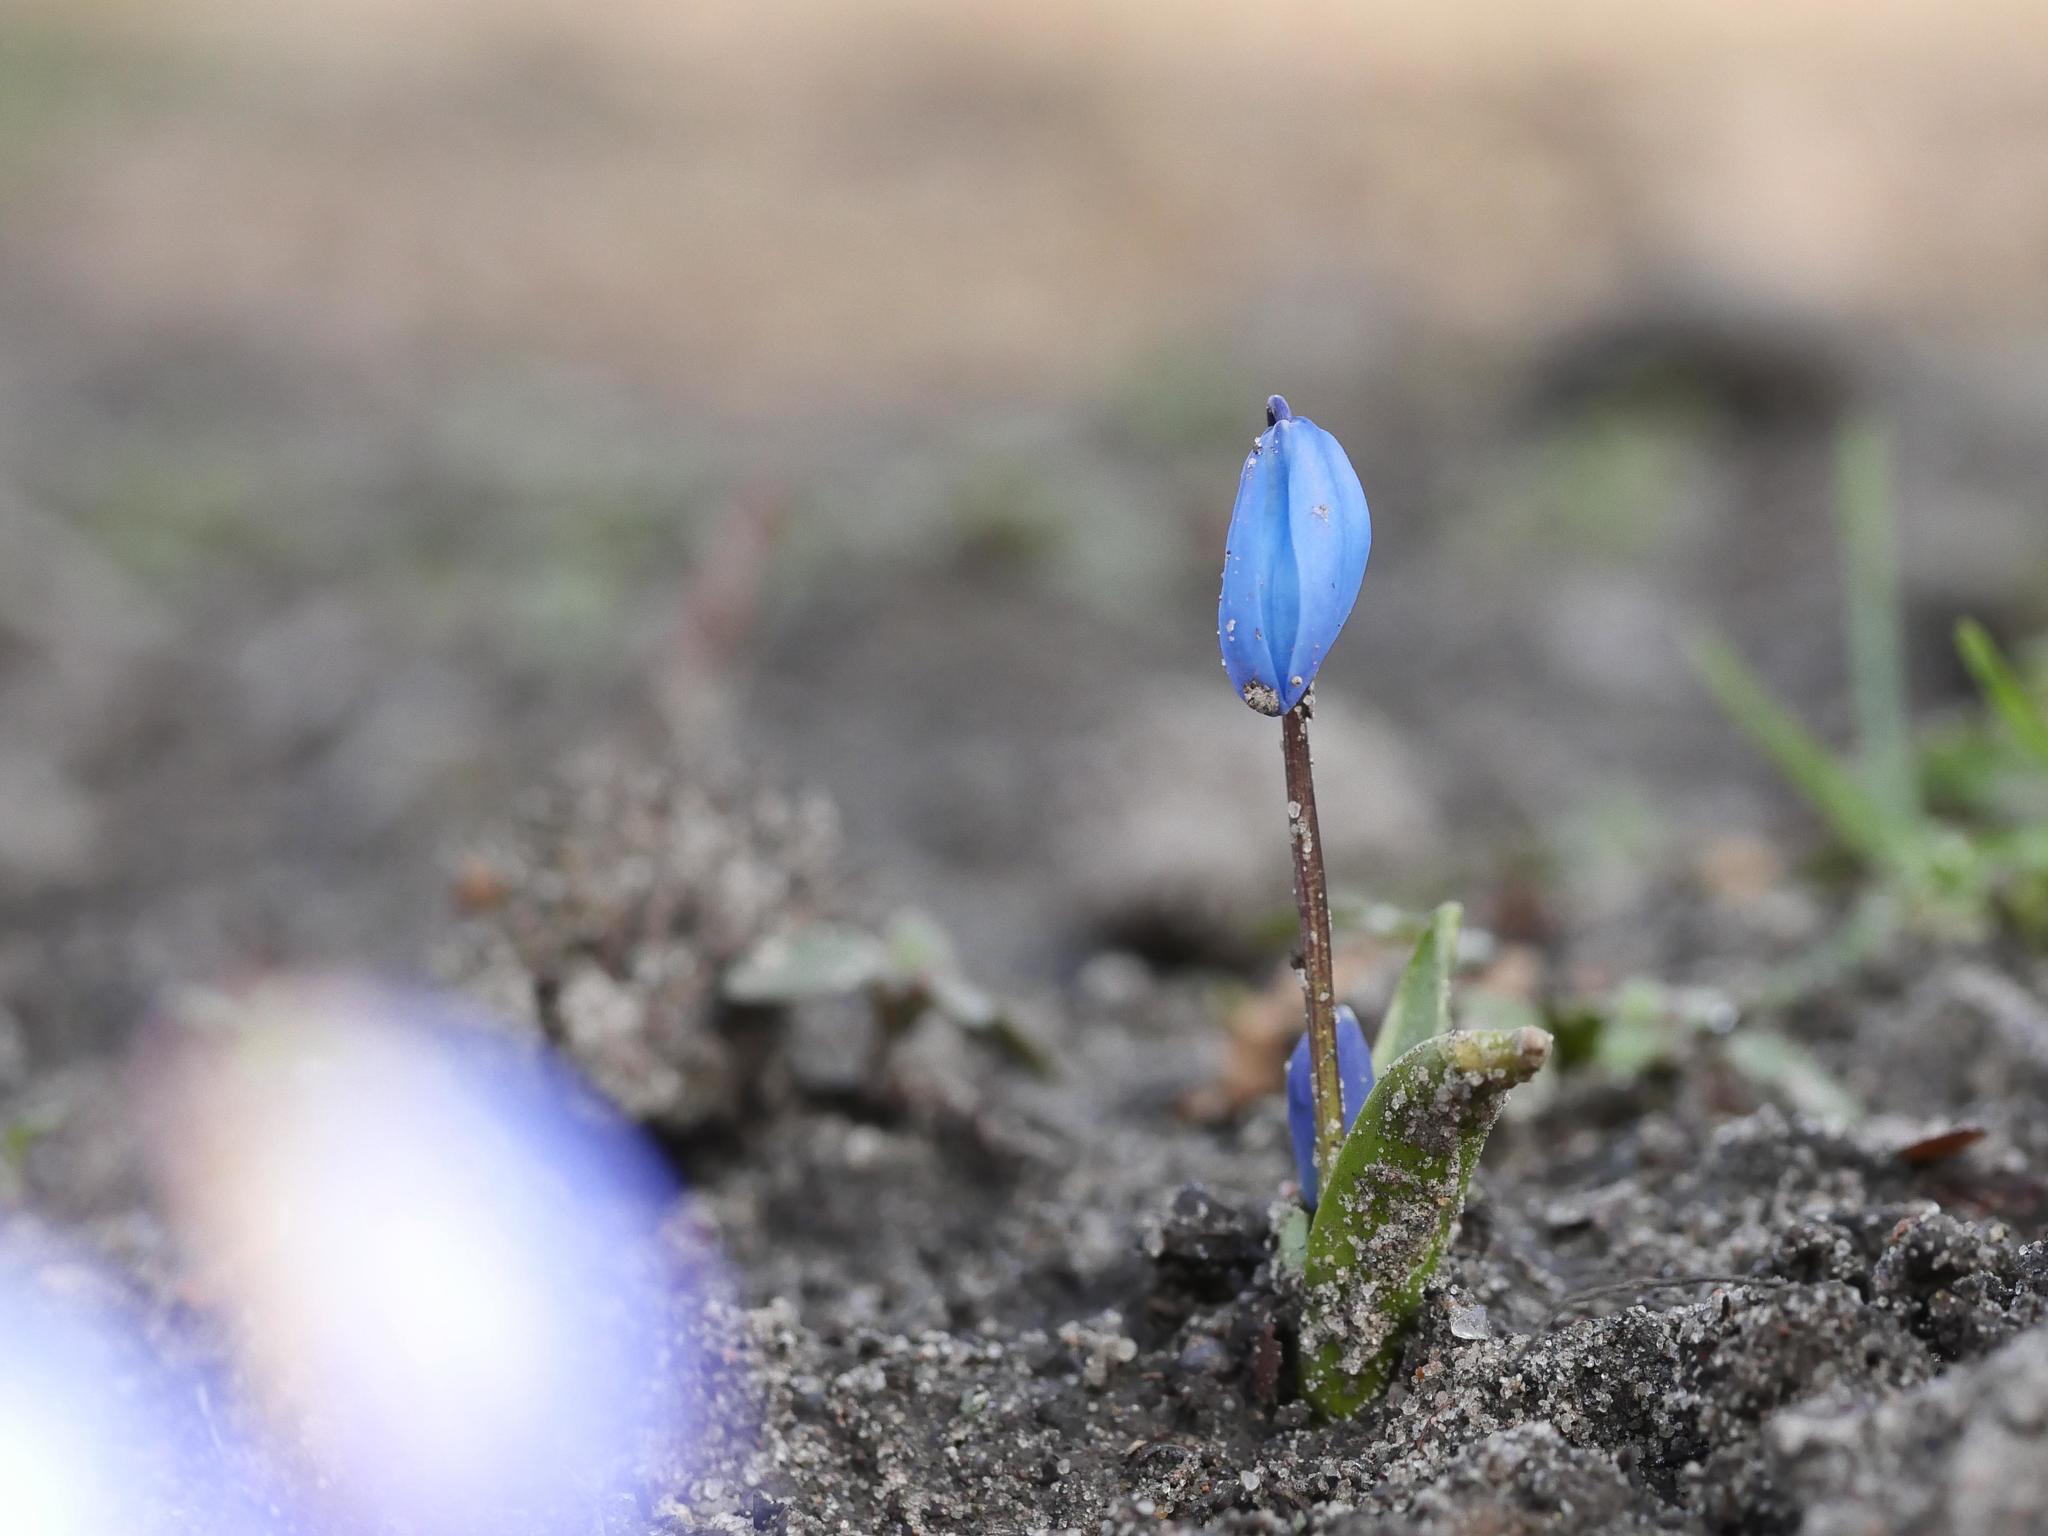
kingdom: Plantae
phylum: Tracheophyta
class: Liliopsida
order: Asparagales
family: Asparagaceae
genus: Scilla
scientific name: Scilla siberica
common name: Siberian squill
